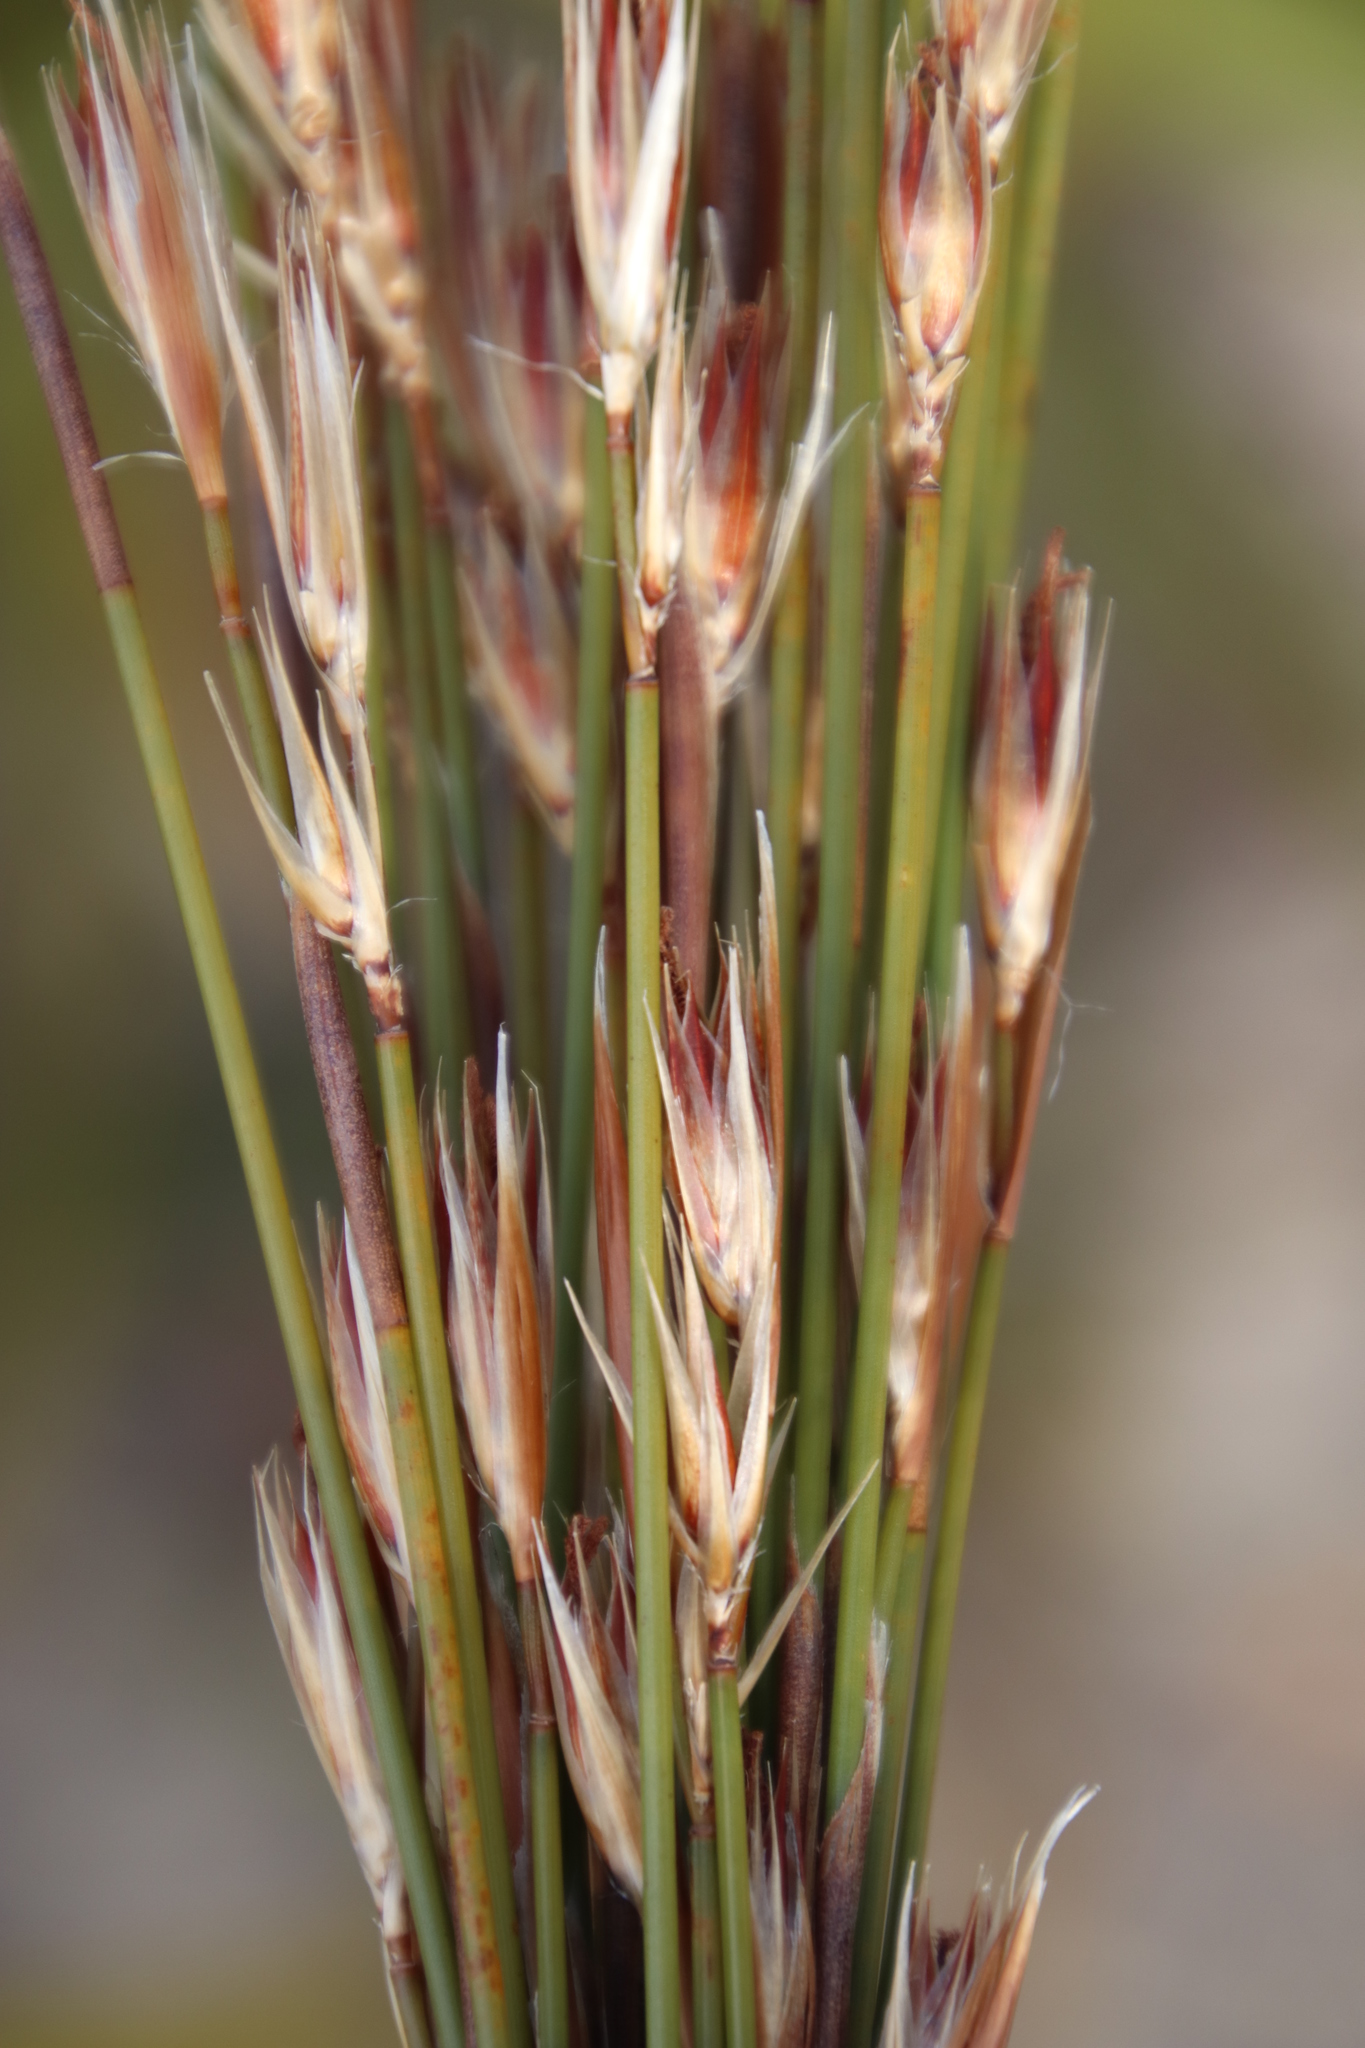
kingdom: Plantae
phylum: Tracheophyta
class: Liliopsida
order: Poales
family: Restionaceae
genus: Hypodiscus
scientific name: Hypodiscus argenteus
